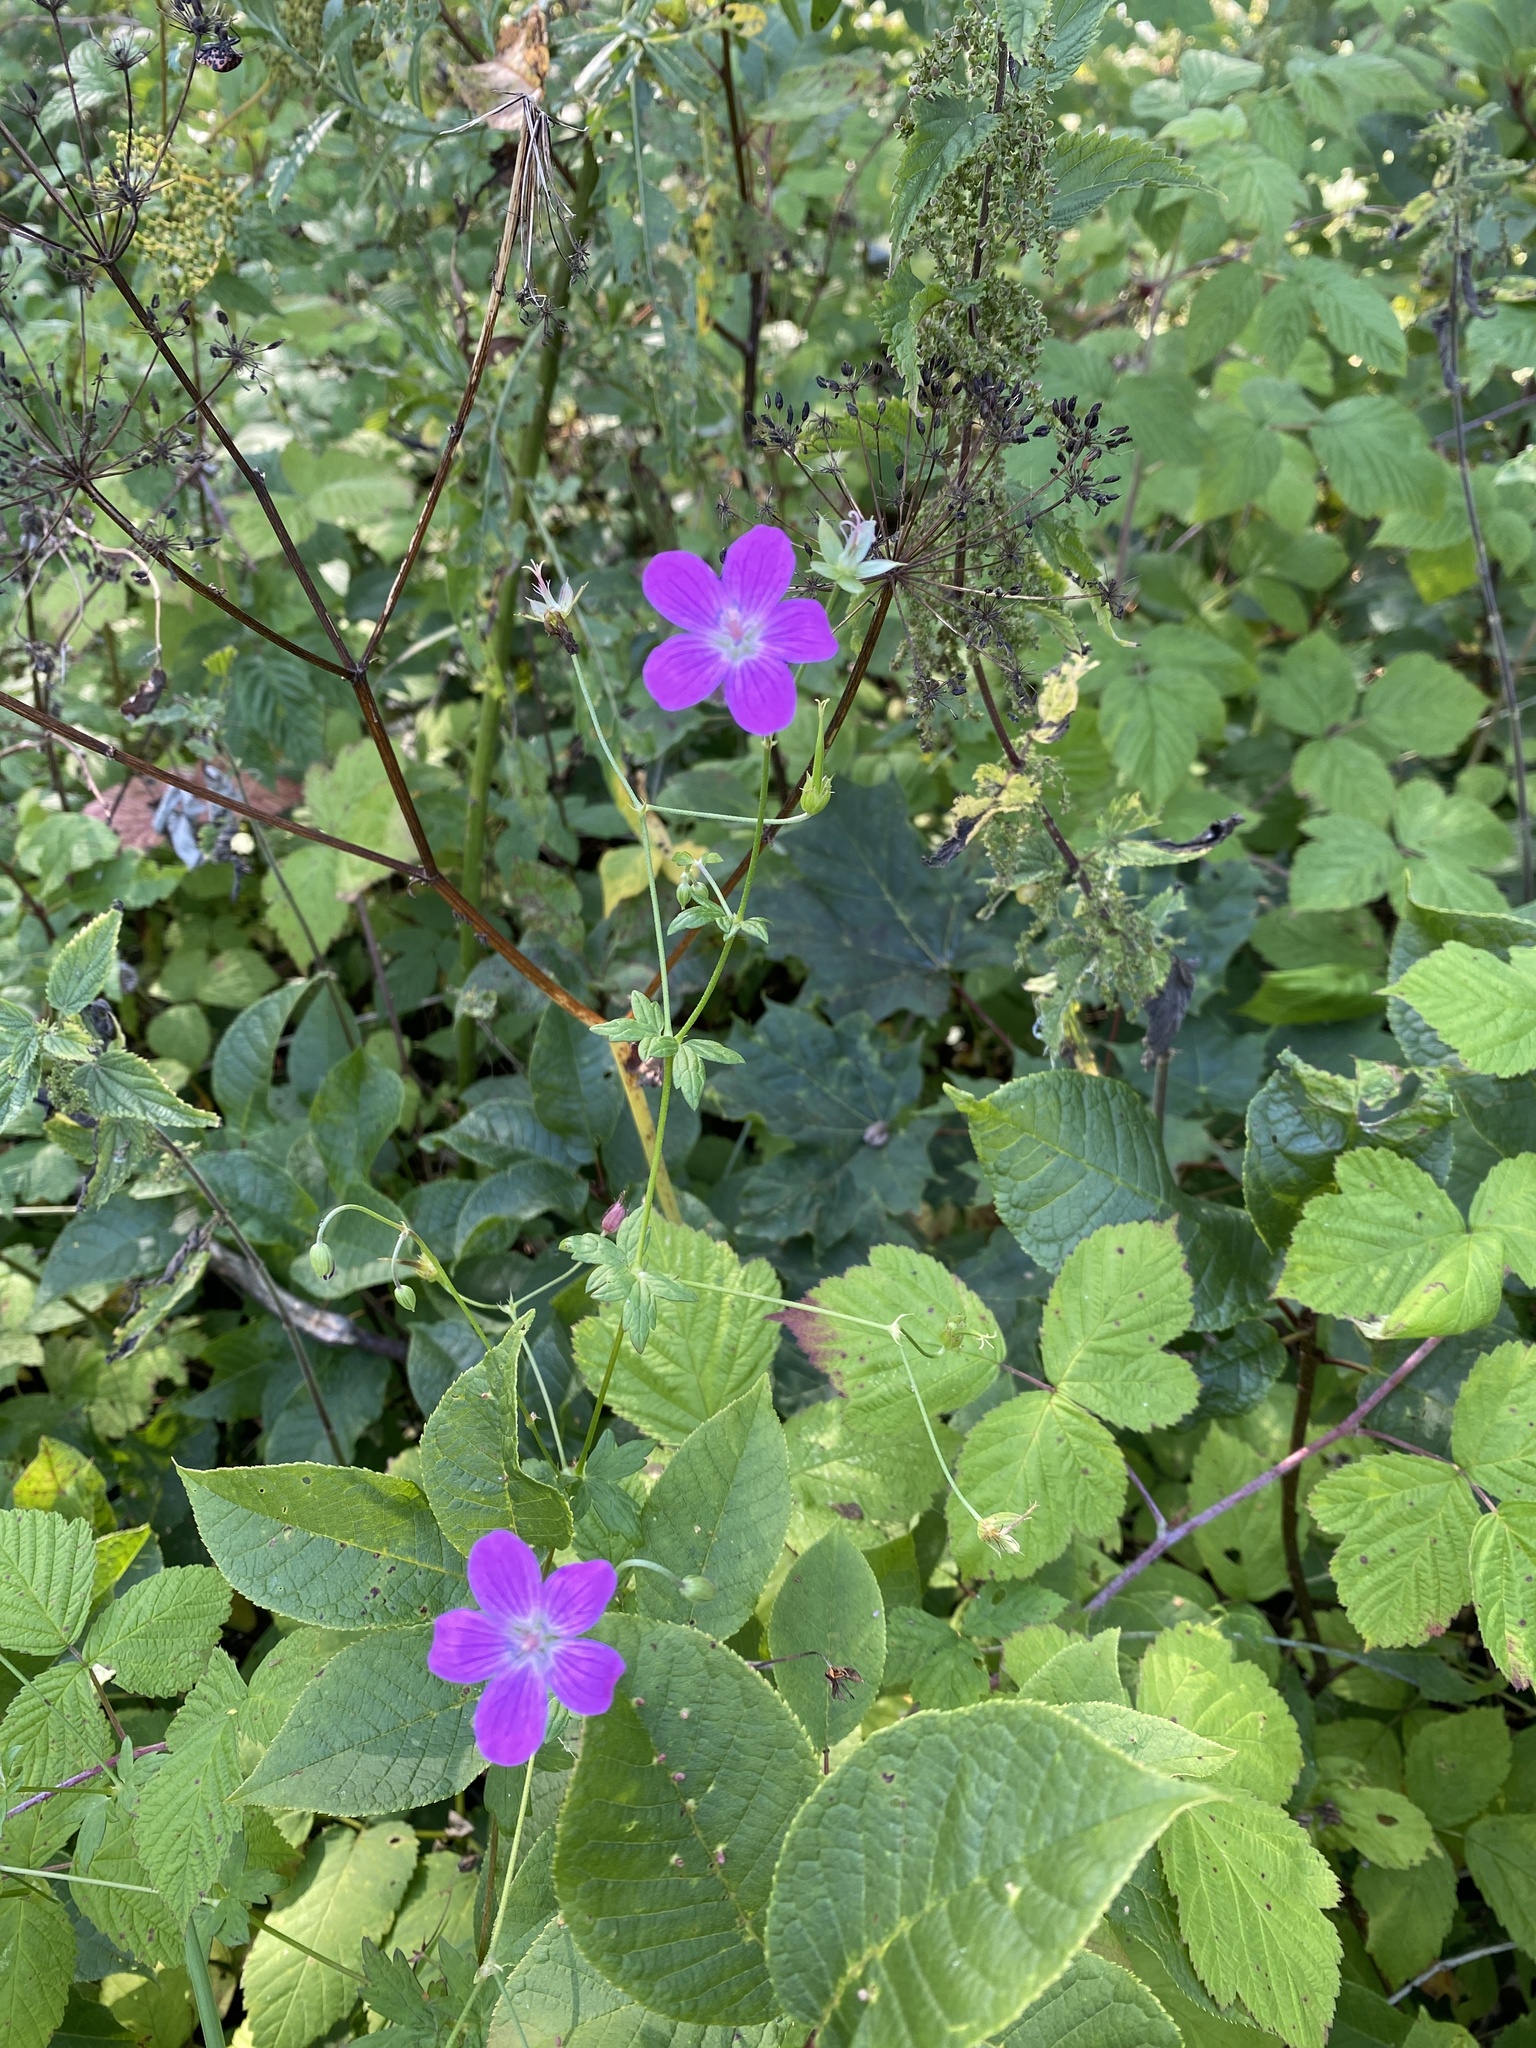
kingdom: Plantae
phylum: Tracheophyta
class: Magnoliopsida
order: Geraniales
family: Geraniaceae
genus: Geranium
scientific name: Geranium palustre
